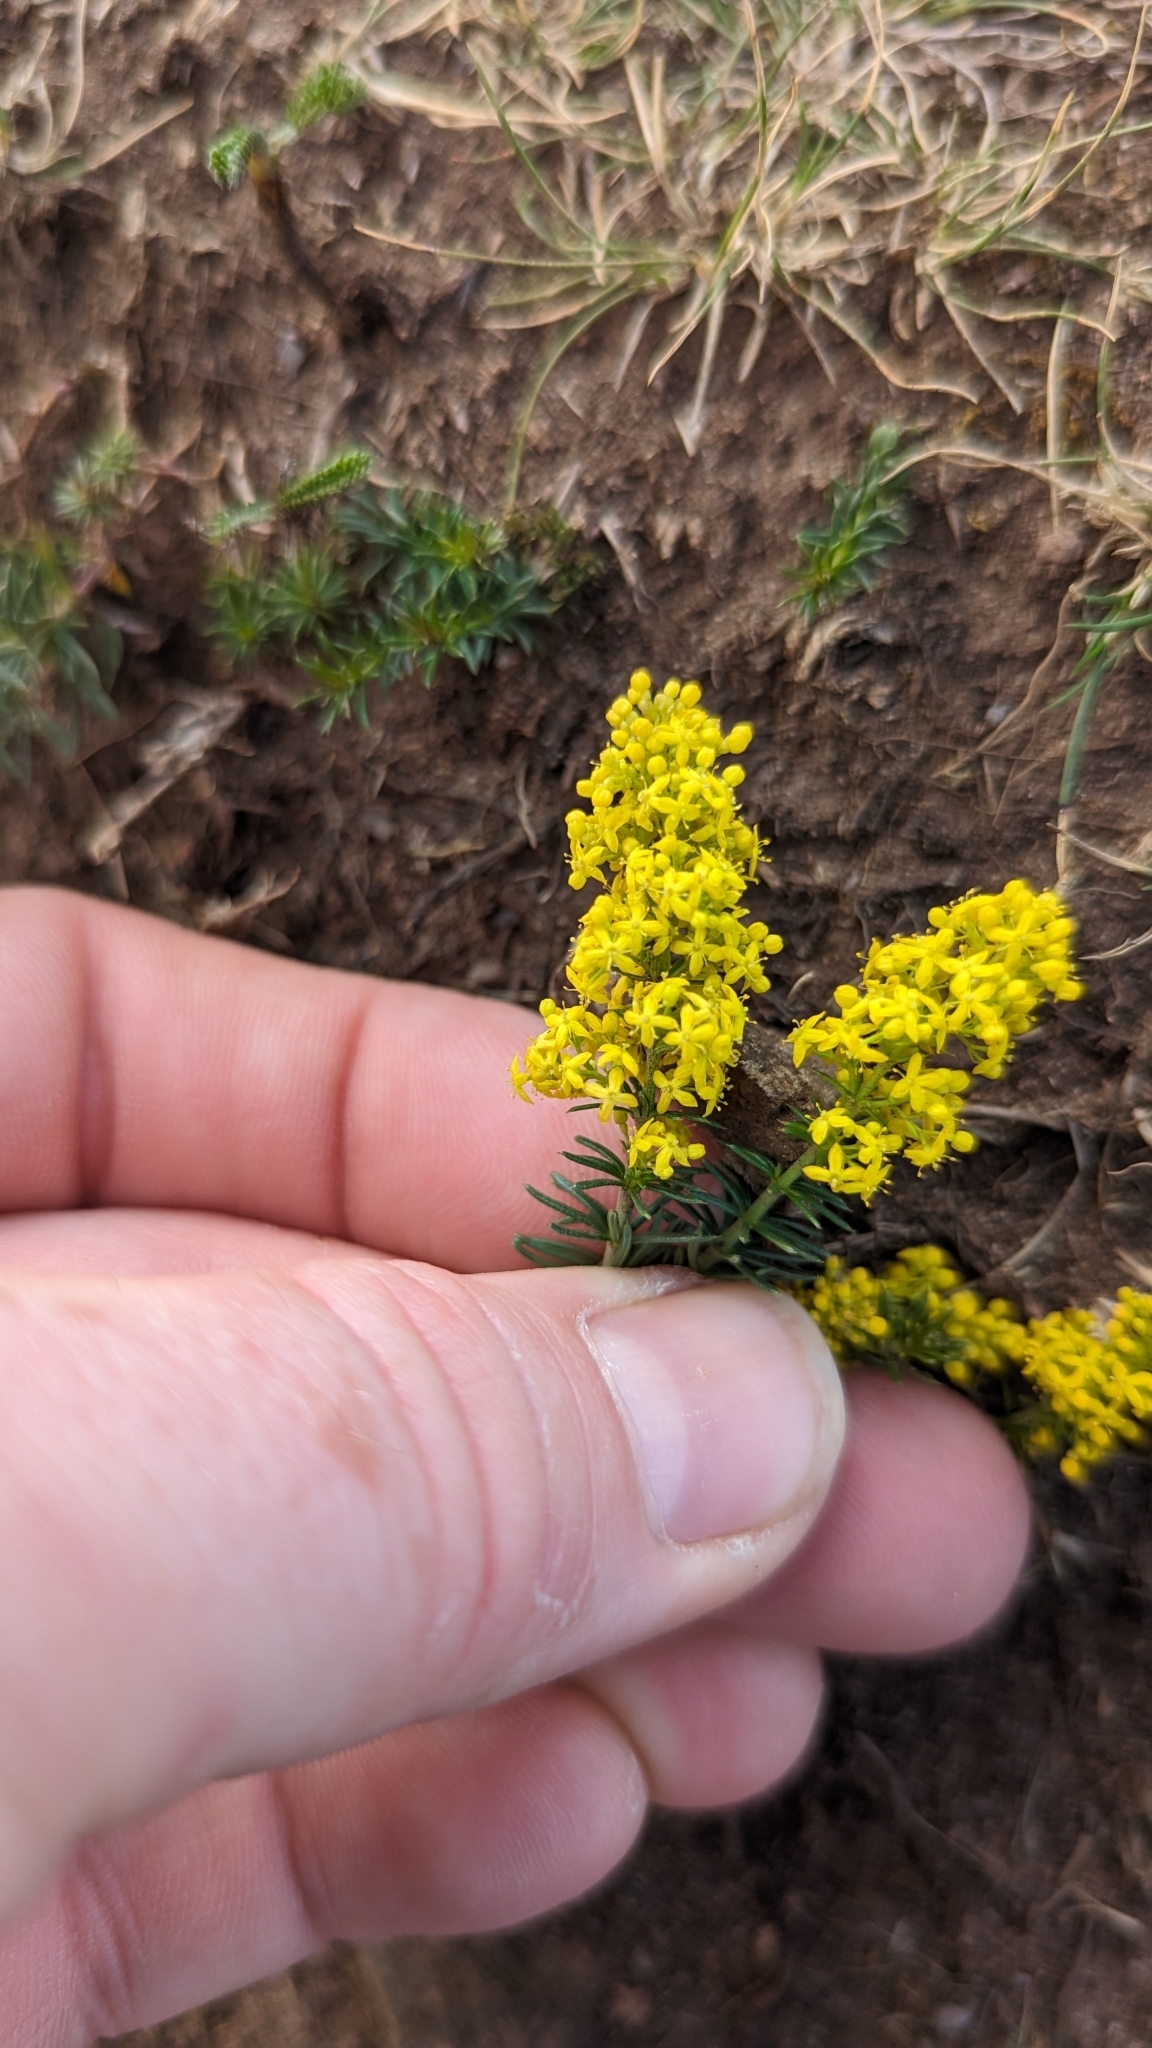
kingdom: Plantae
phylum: Tracheophyta
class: Magnoliopsida
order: Gentianales
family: Rubiaceae
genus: Galium
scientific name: Galium verum
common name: Lady's bedstraw
